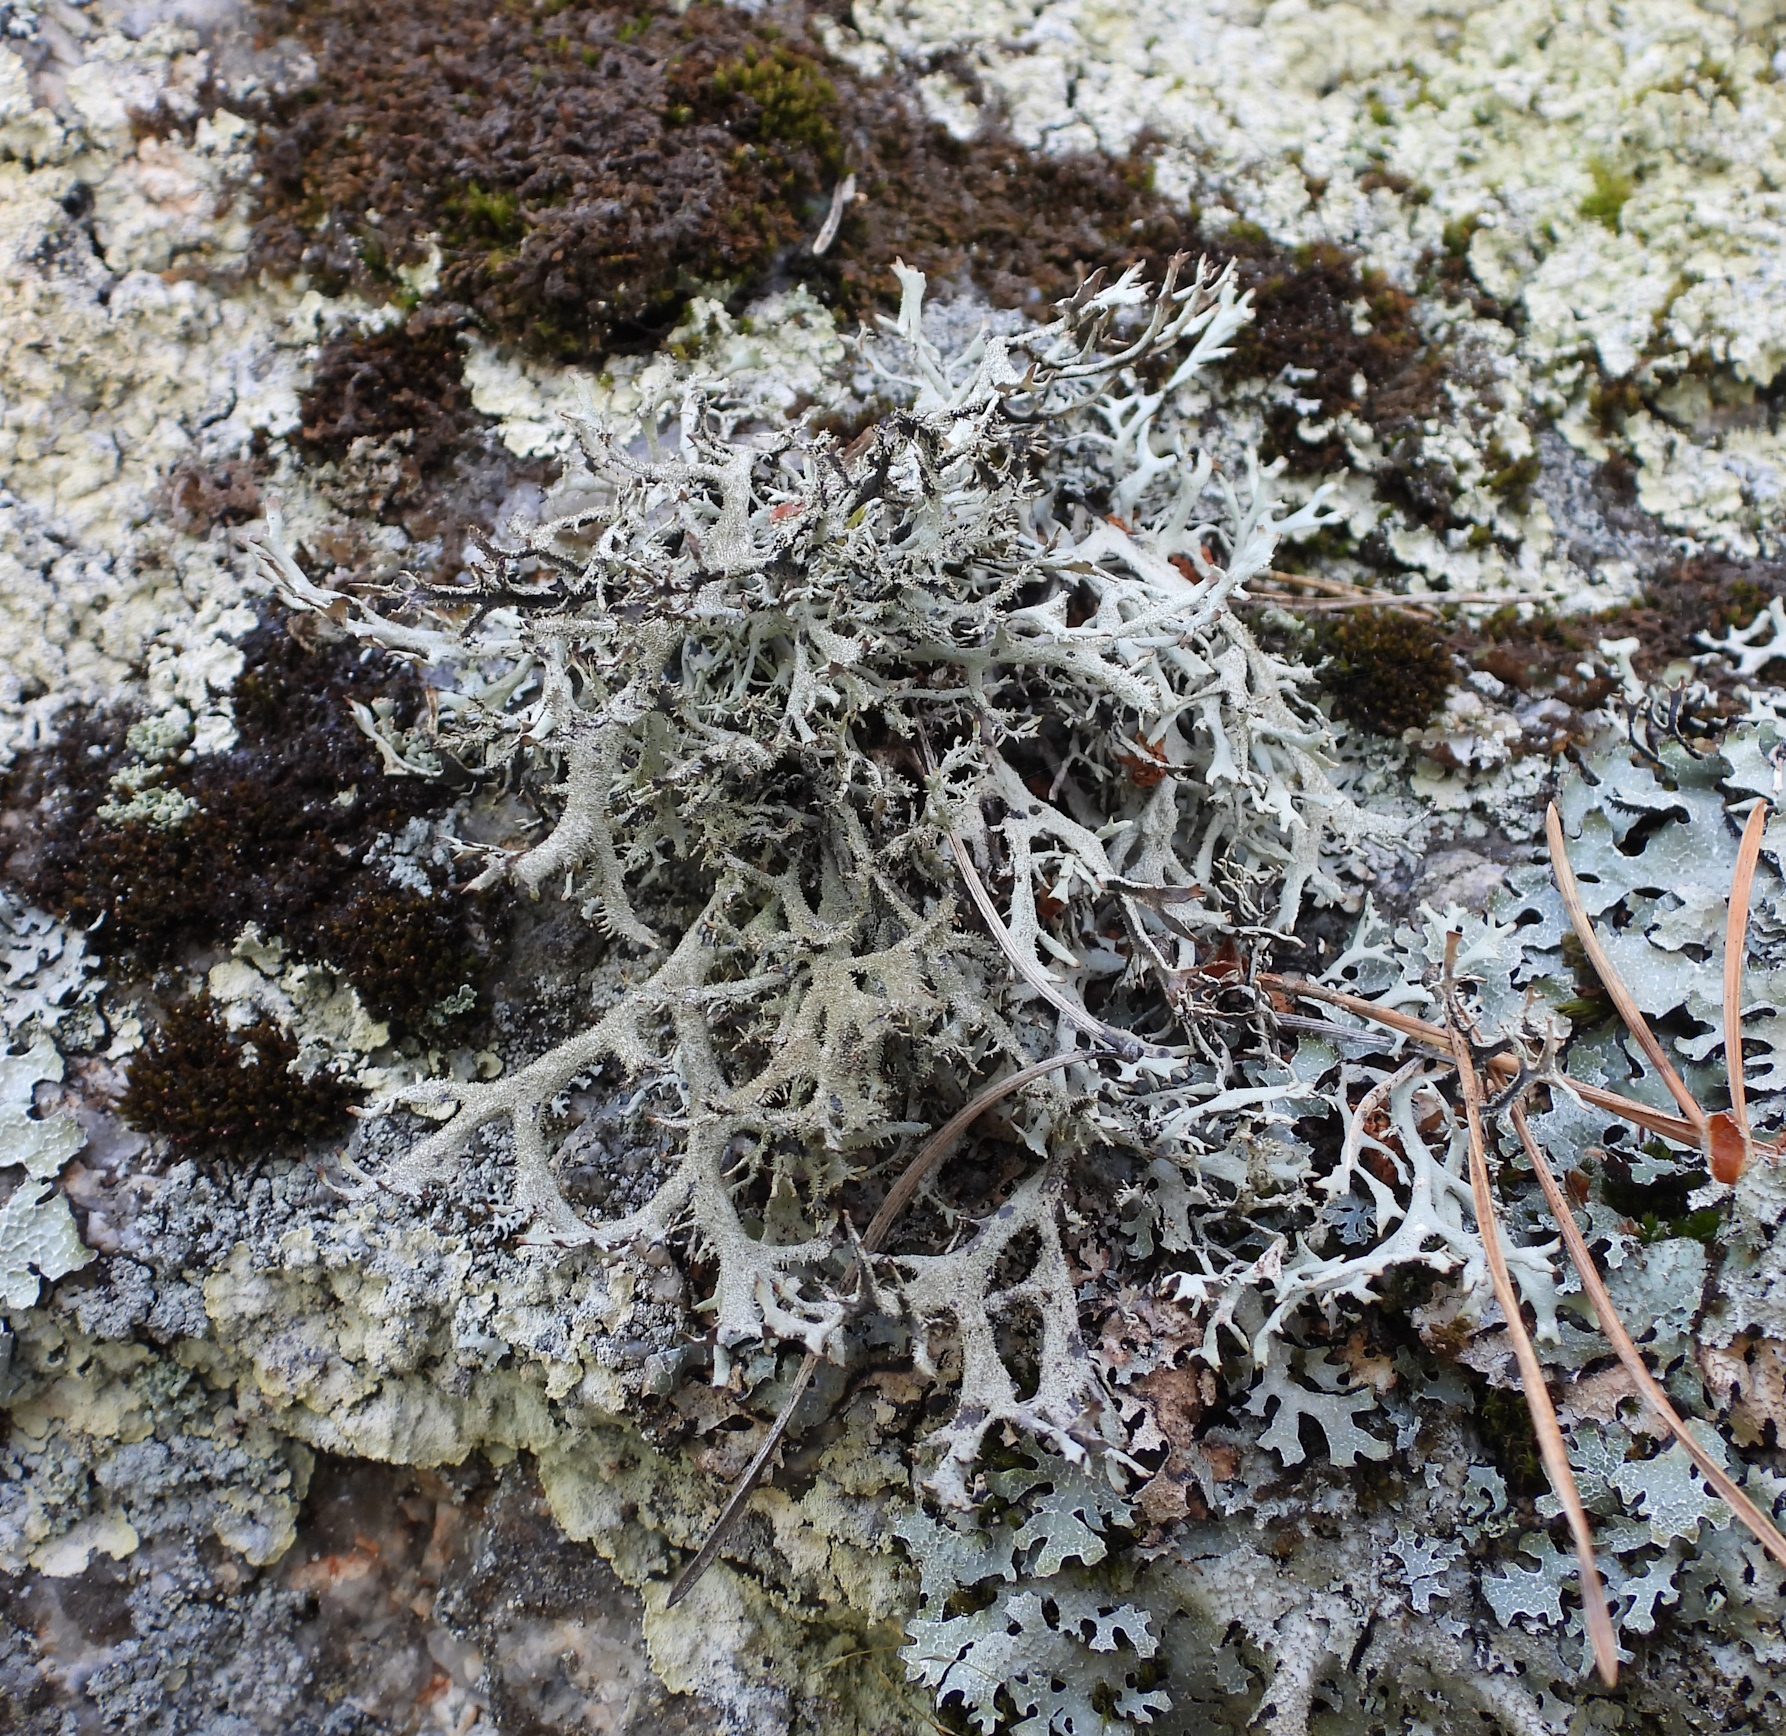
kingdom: Fungi
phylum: Ascomycota
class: Lecanoromycetes
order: Lecanorales
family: Parmeliaceae
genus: Pseudevernia
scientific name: Pseudevernia furfuracea
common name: Tree moss
